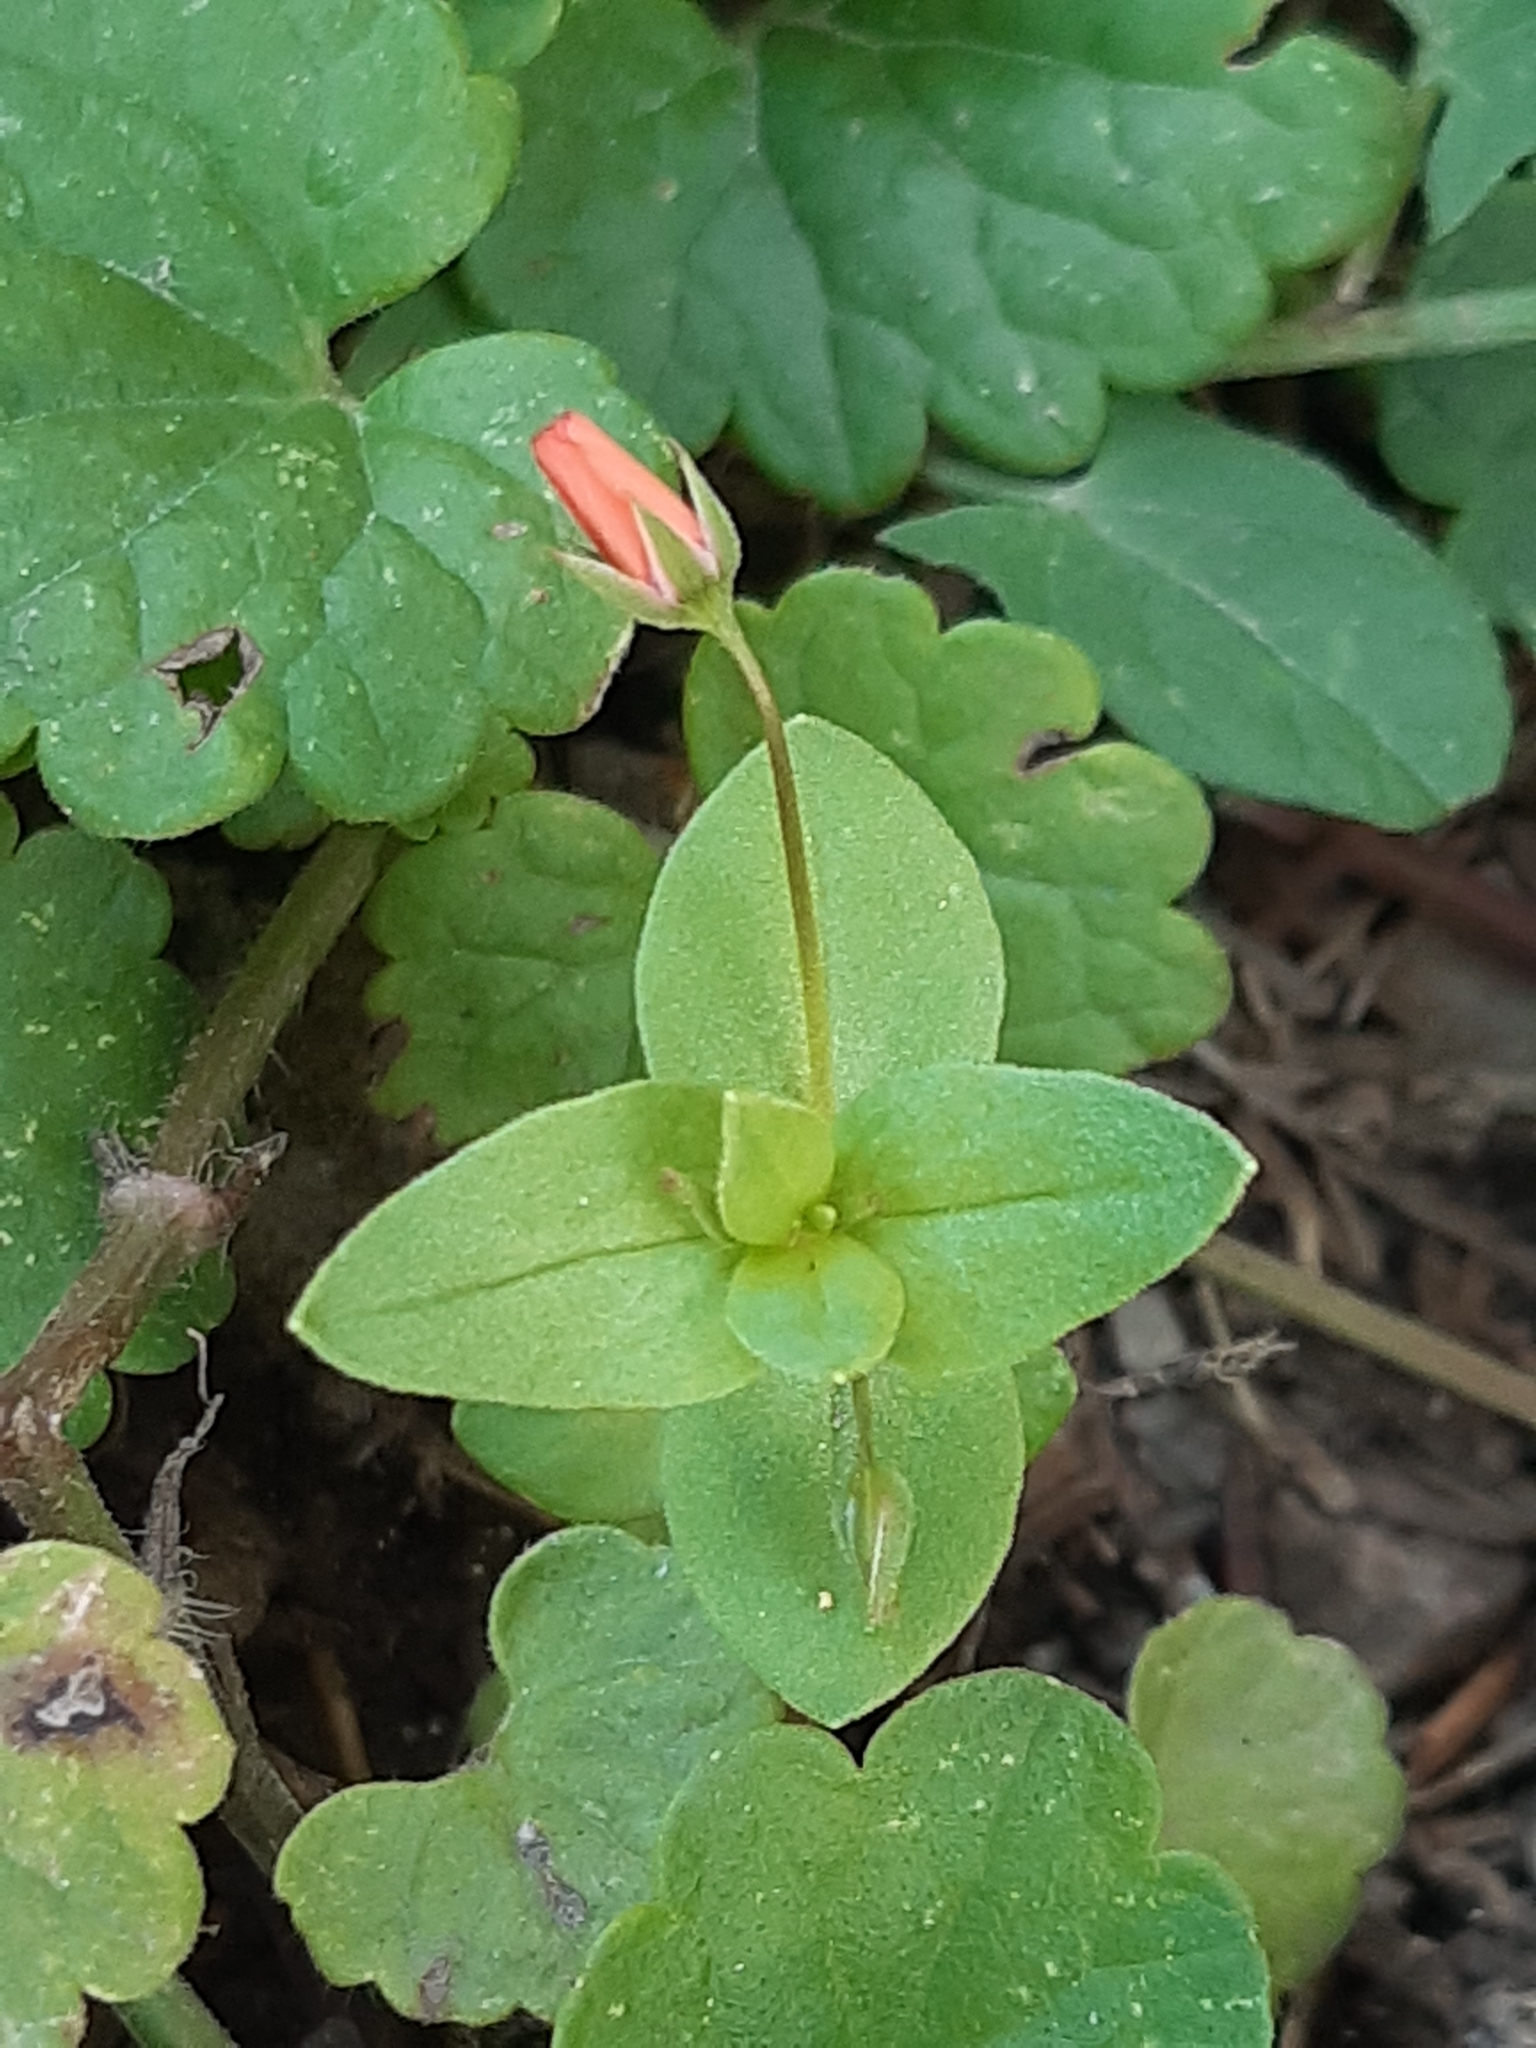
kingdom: Plantae
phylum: Tracheophyta
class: Magnoliopsida
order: Ericales
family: Primulaceae
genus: Lysimachia
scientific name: Lysimachia arvensis
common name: Scarlet pimpernel
